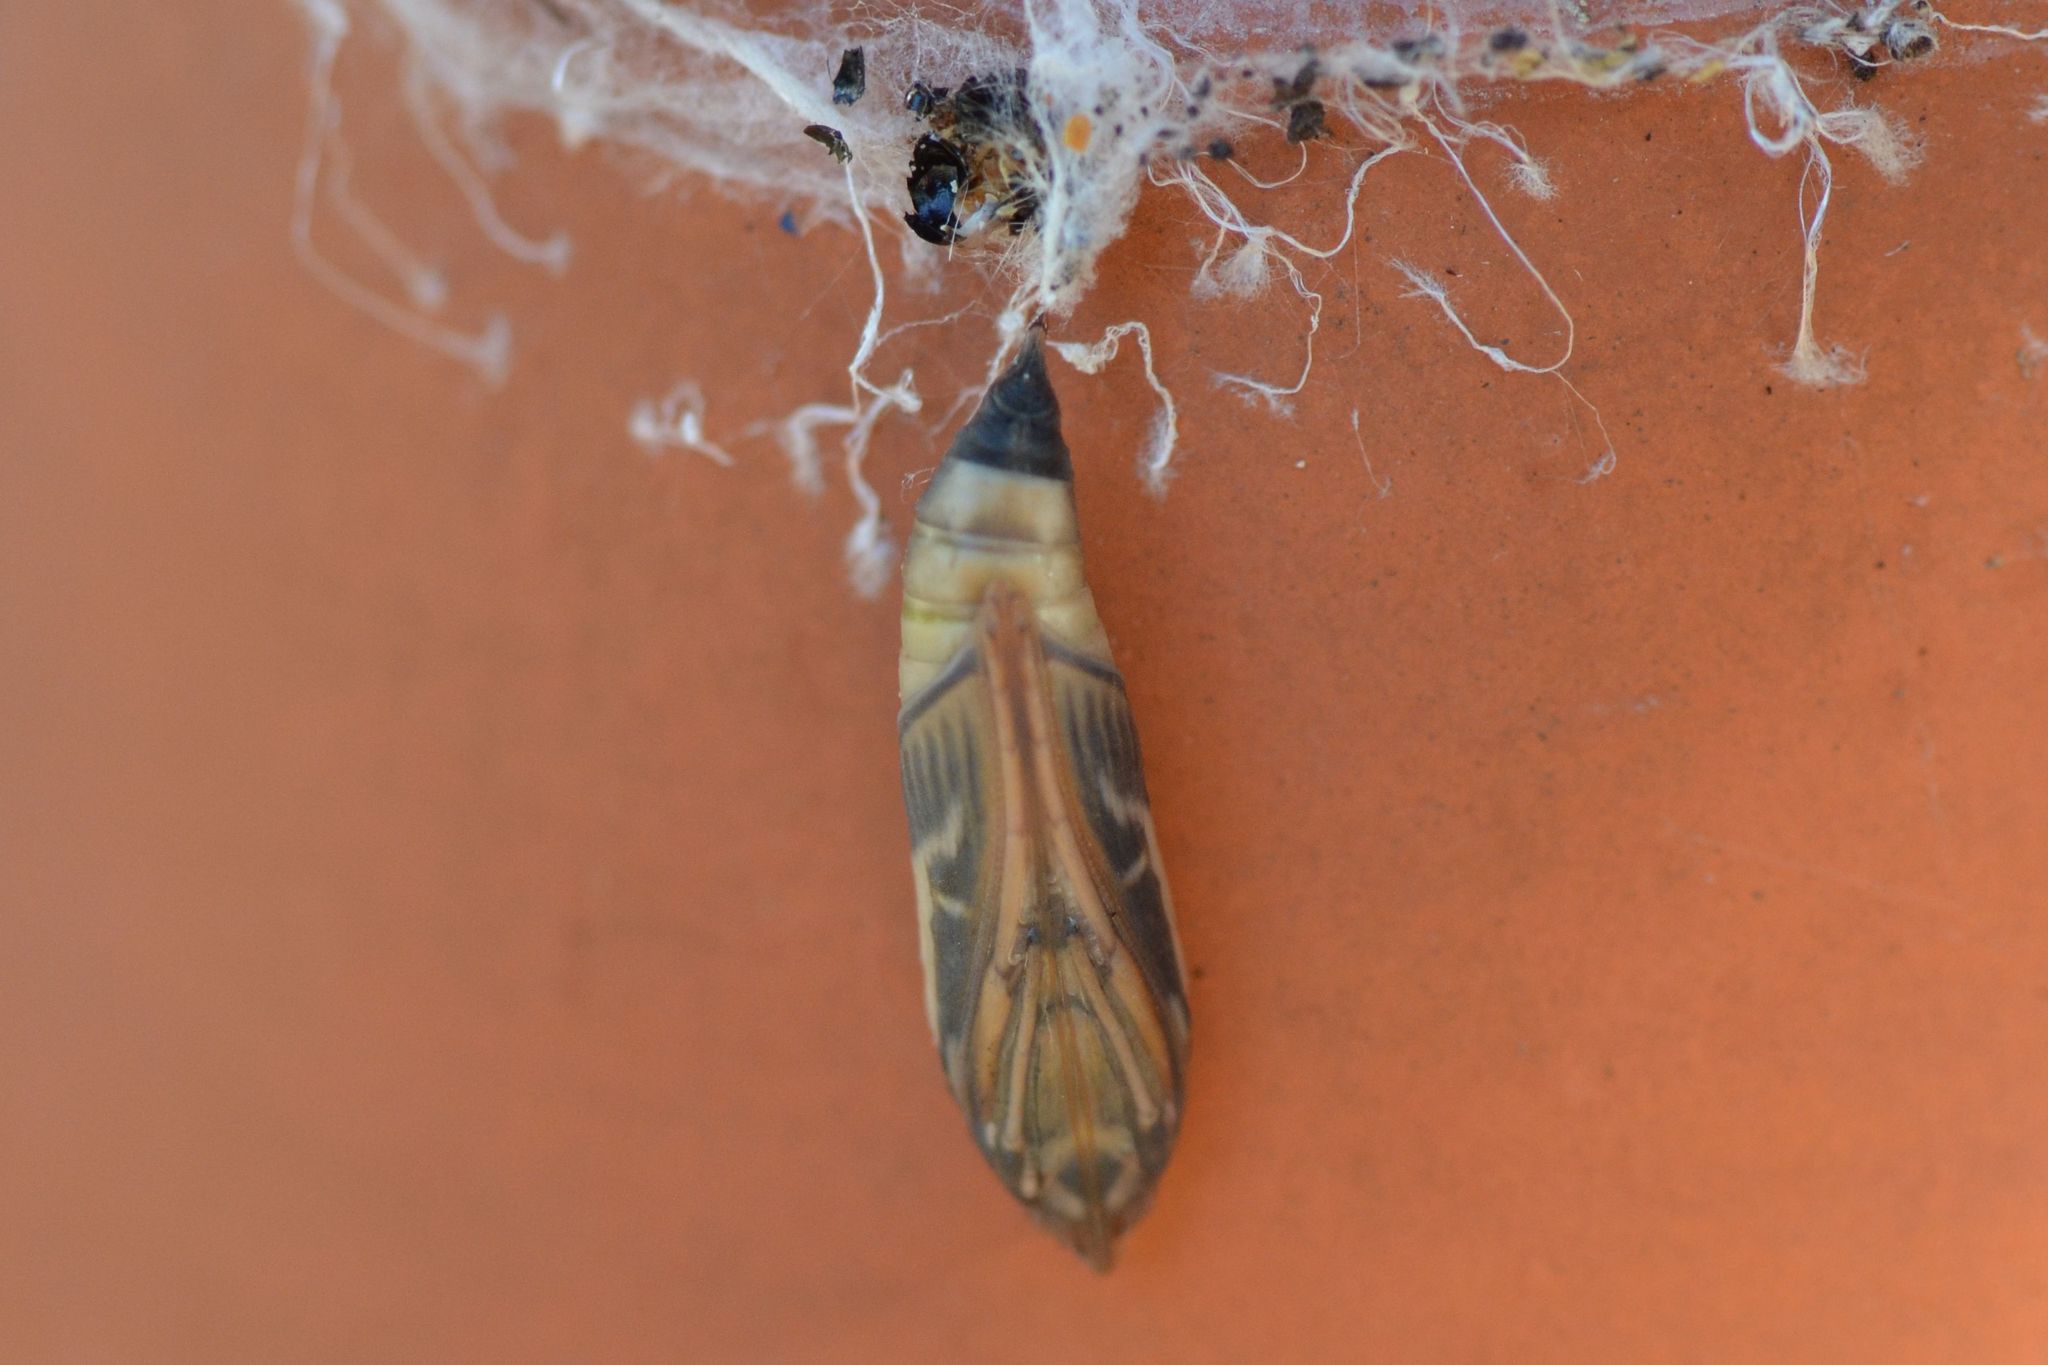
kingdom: Animalia
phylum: Arthropoda
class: Insecta
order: Lepidoptera
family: Crambidae
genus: Cydalima
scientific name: Cydalima perspectalis
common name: Box tree moth
